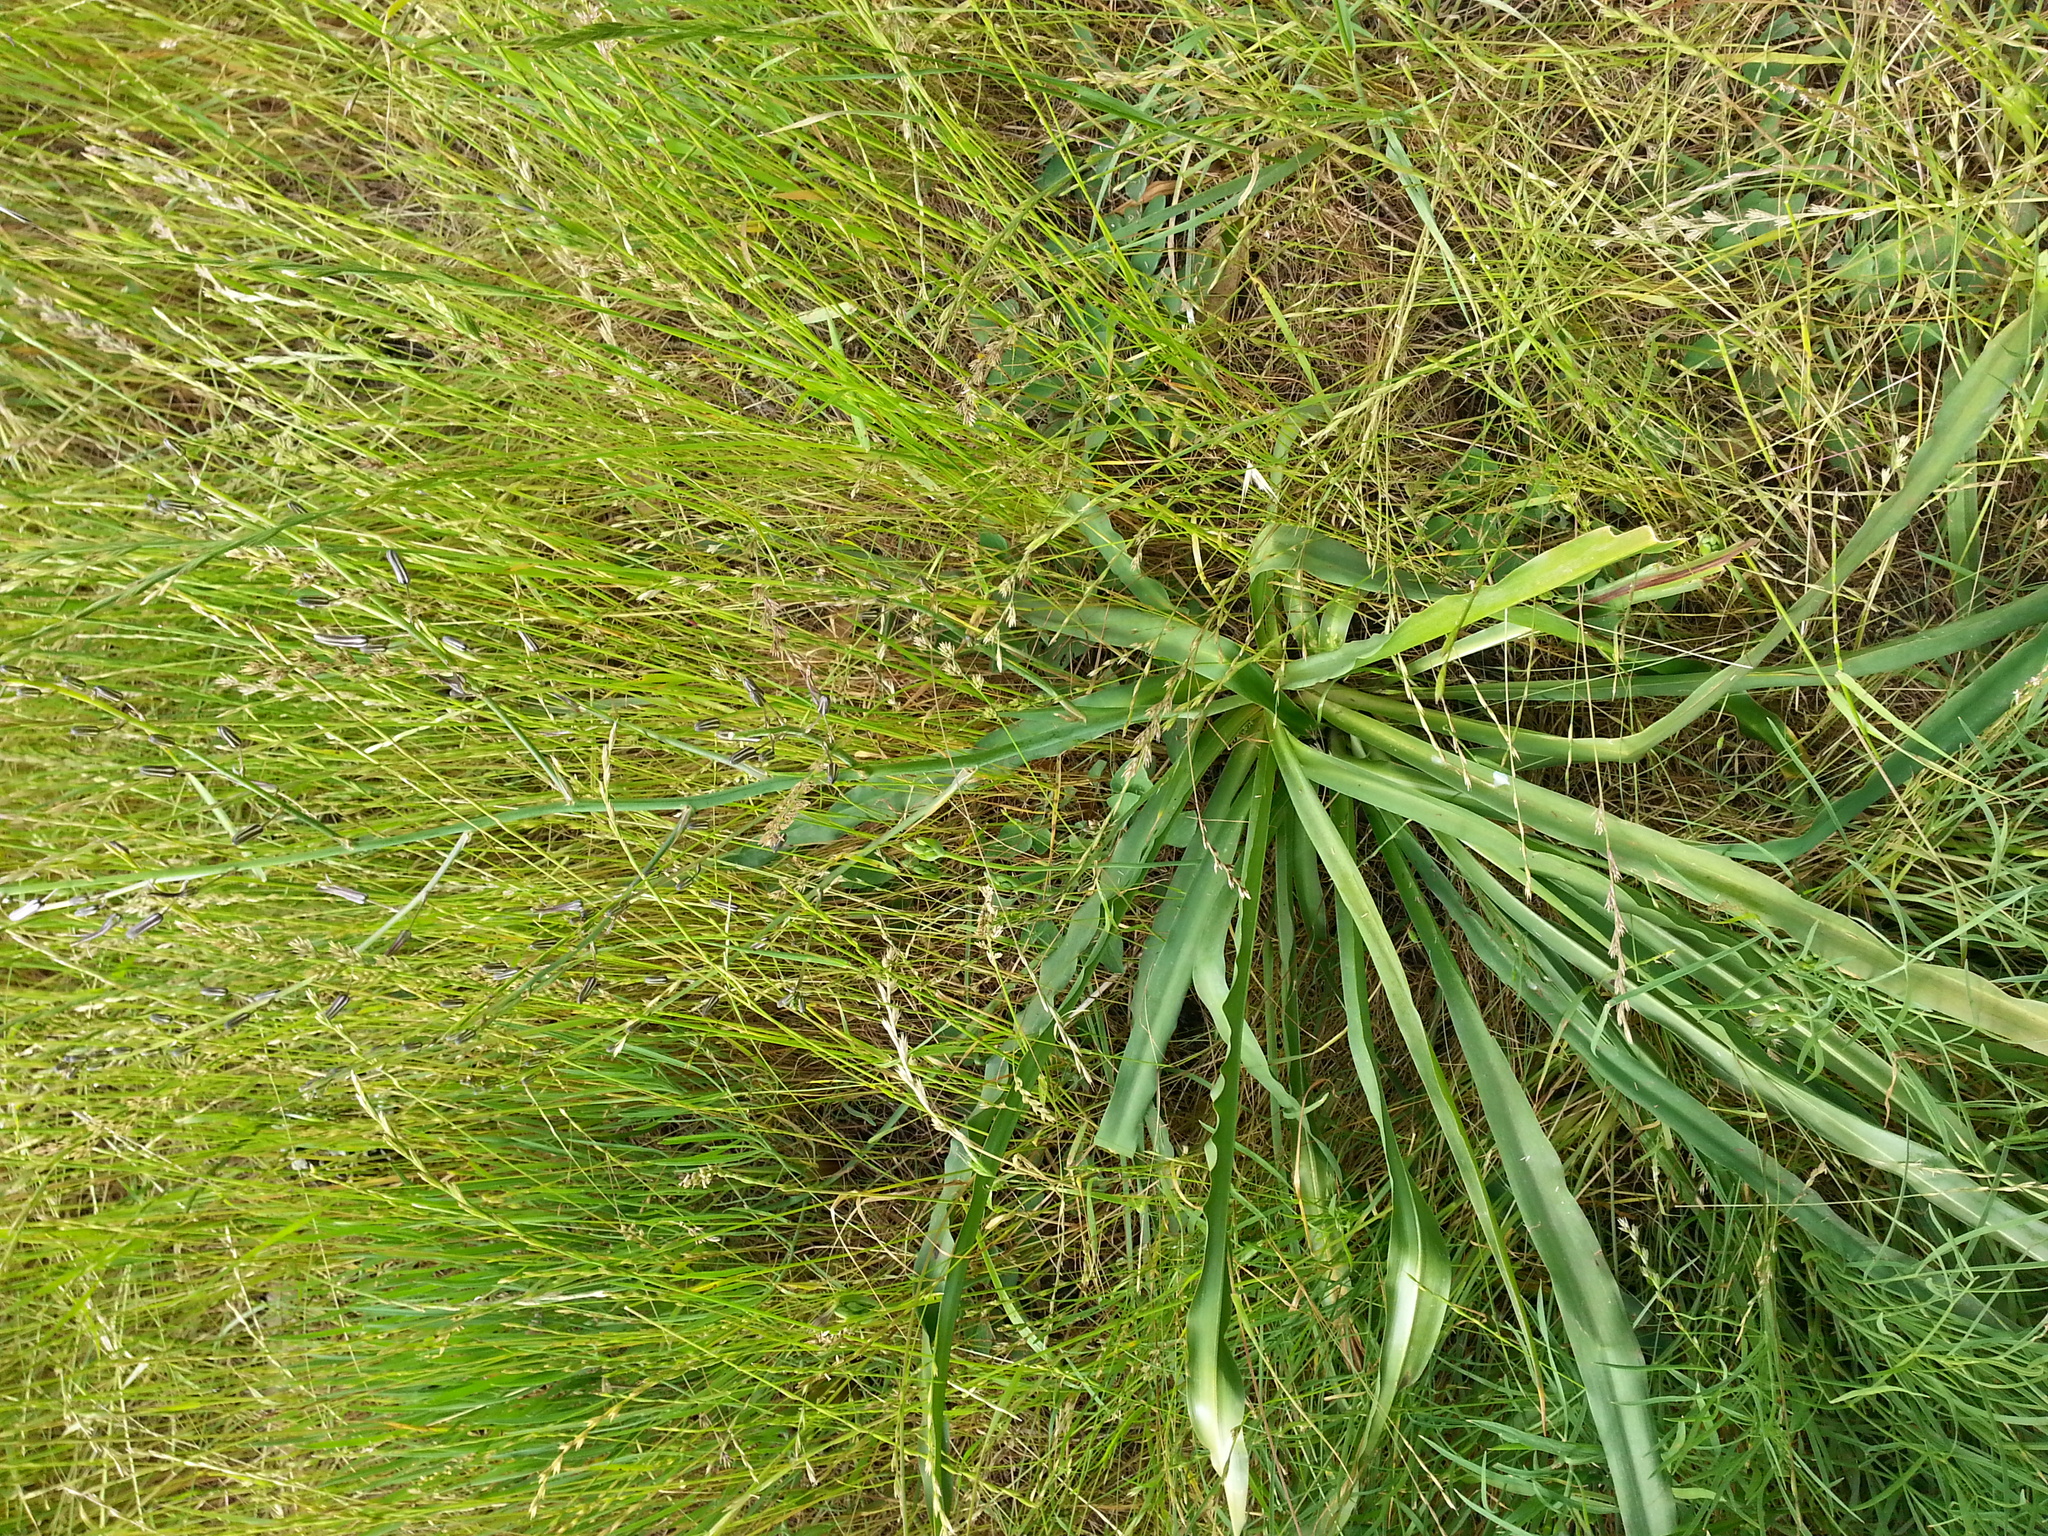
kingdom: Plantae
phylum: Tracheophyta
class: Liliopsida
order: Asparagales
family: Asparagaceae
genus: Chlorogalum
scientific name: Chlorogalum pomeridianum
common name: Amole
